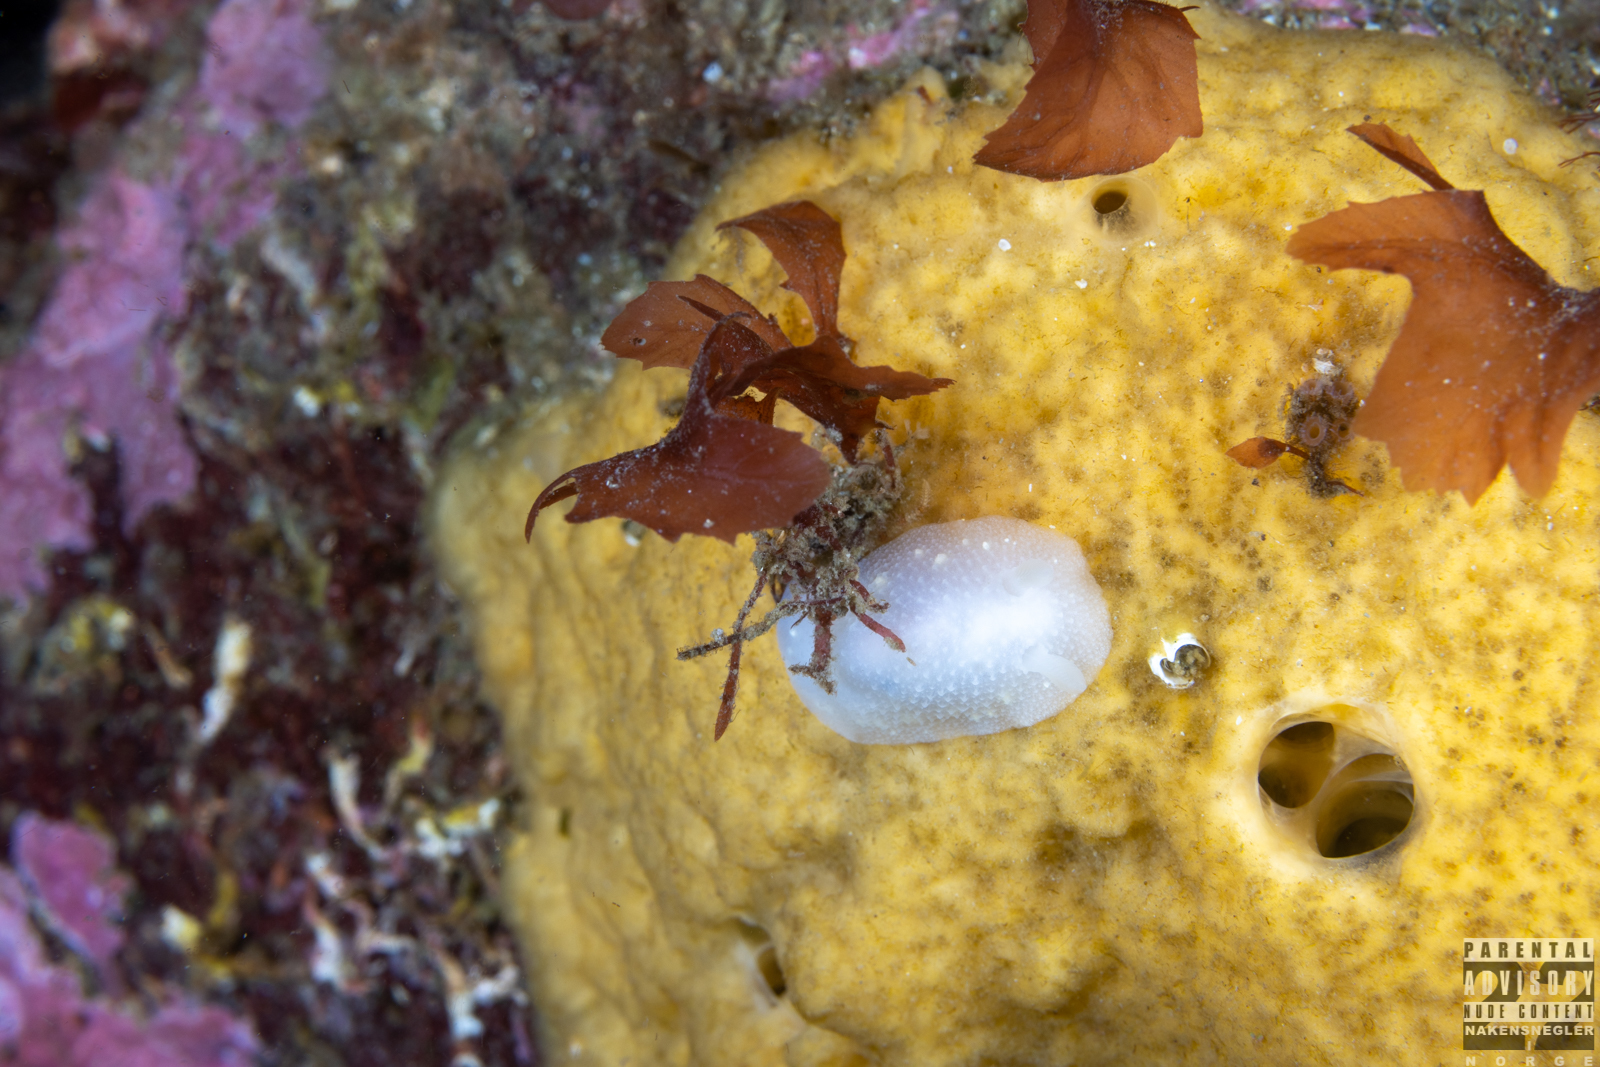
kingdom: Animalia
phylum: Mollusca
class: Gastropoda
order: Nudibranchia
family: Cadlinidae
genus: Cadlina
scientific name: Cadlina laevis
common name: White atlantic cadlina
